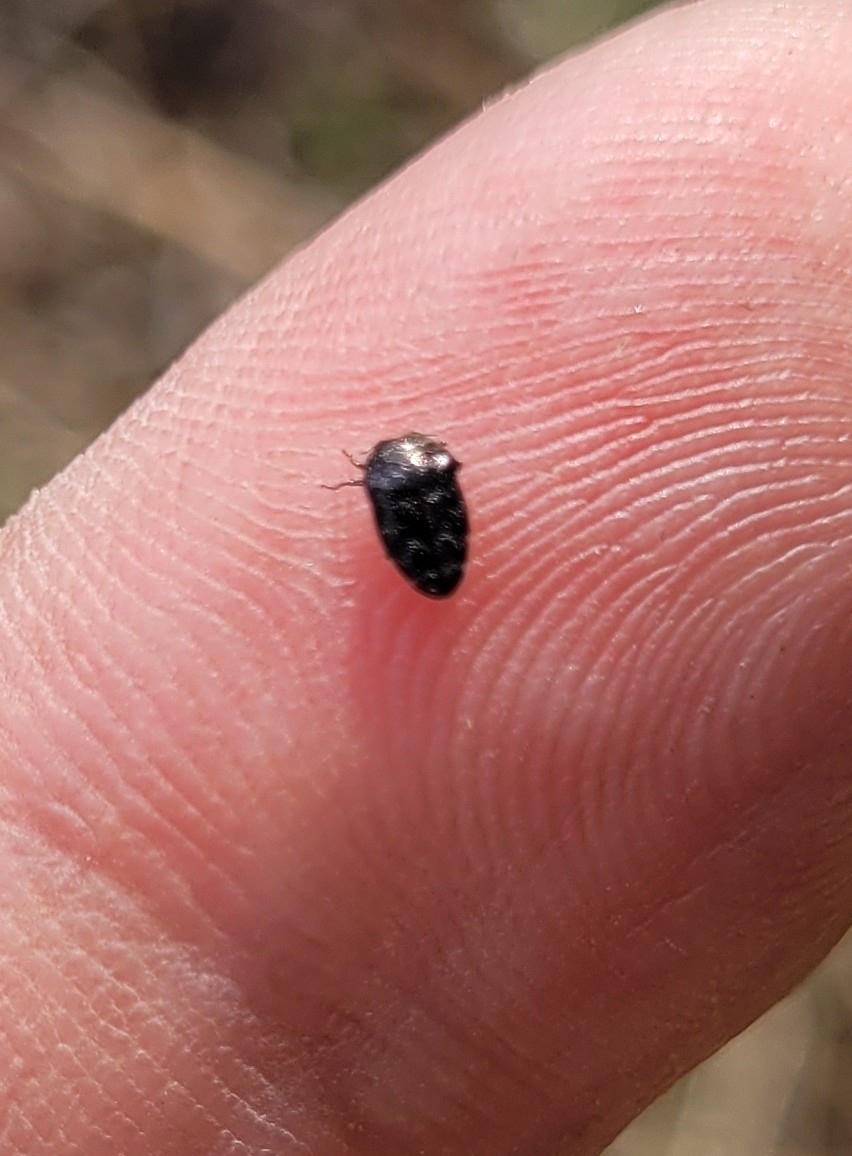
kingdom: Animalia
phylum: Arthropoda
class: Insecta
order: Coleoptera
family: Buprestidae
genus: Trachys
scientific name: Trachys minutus
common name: Metallic wood-boring beetle
